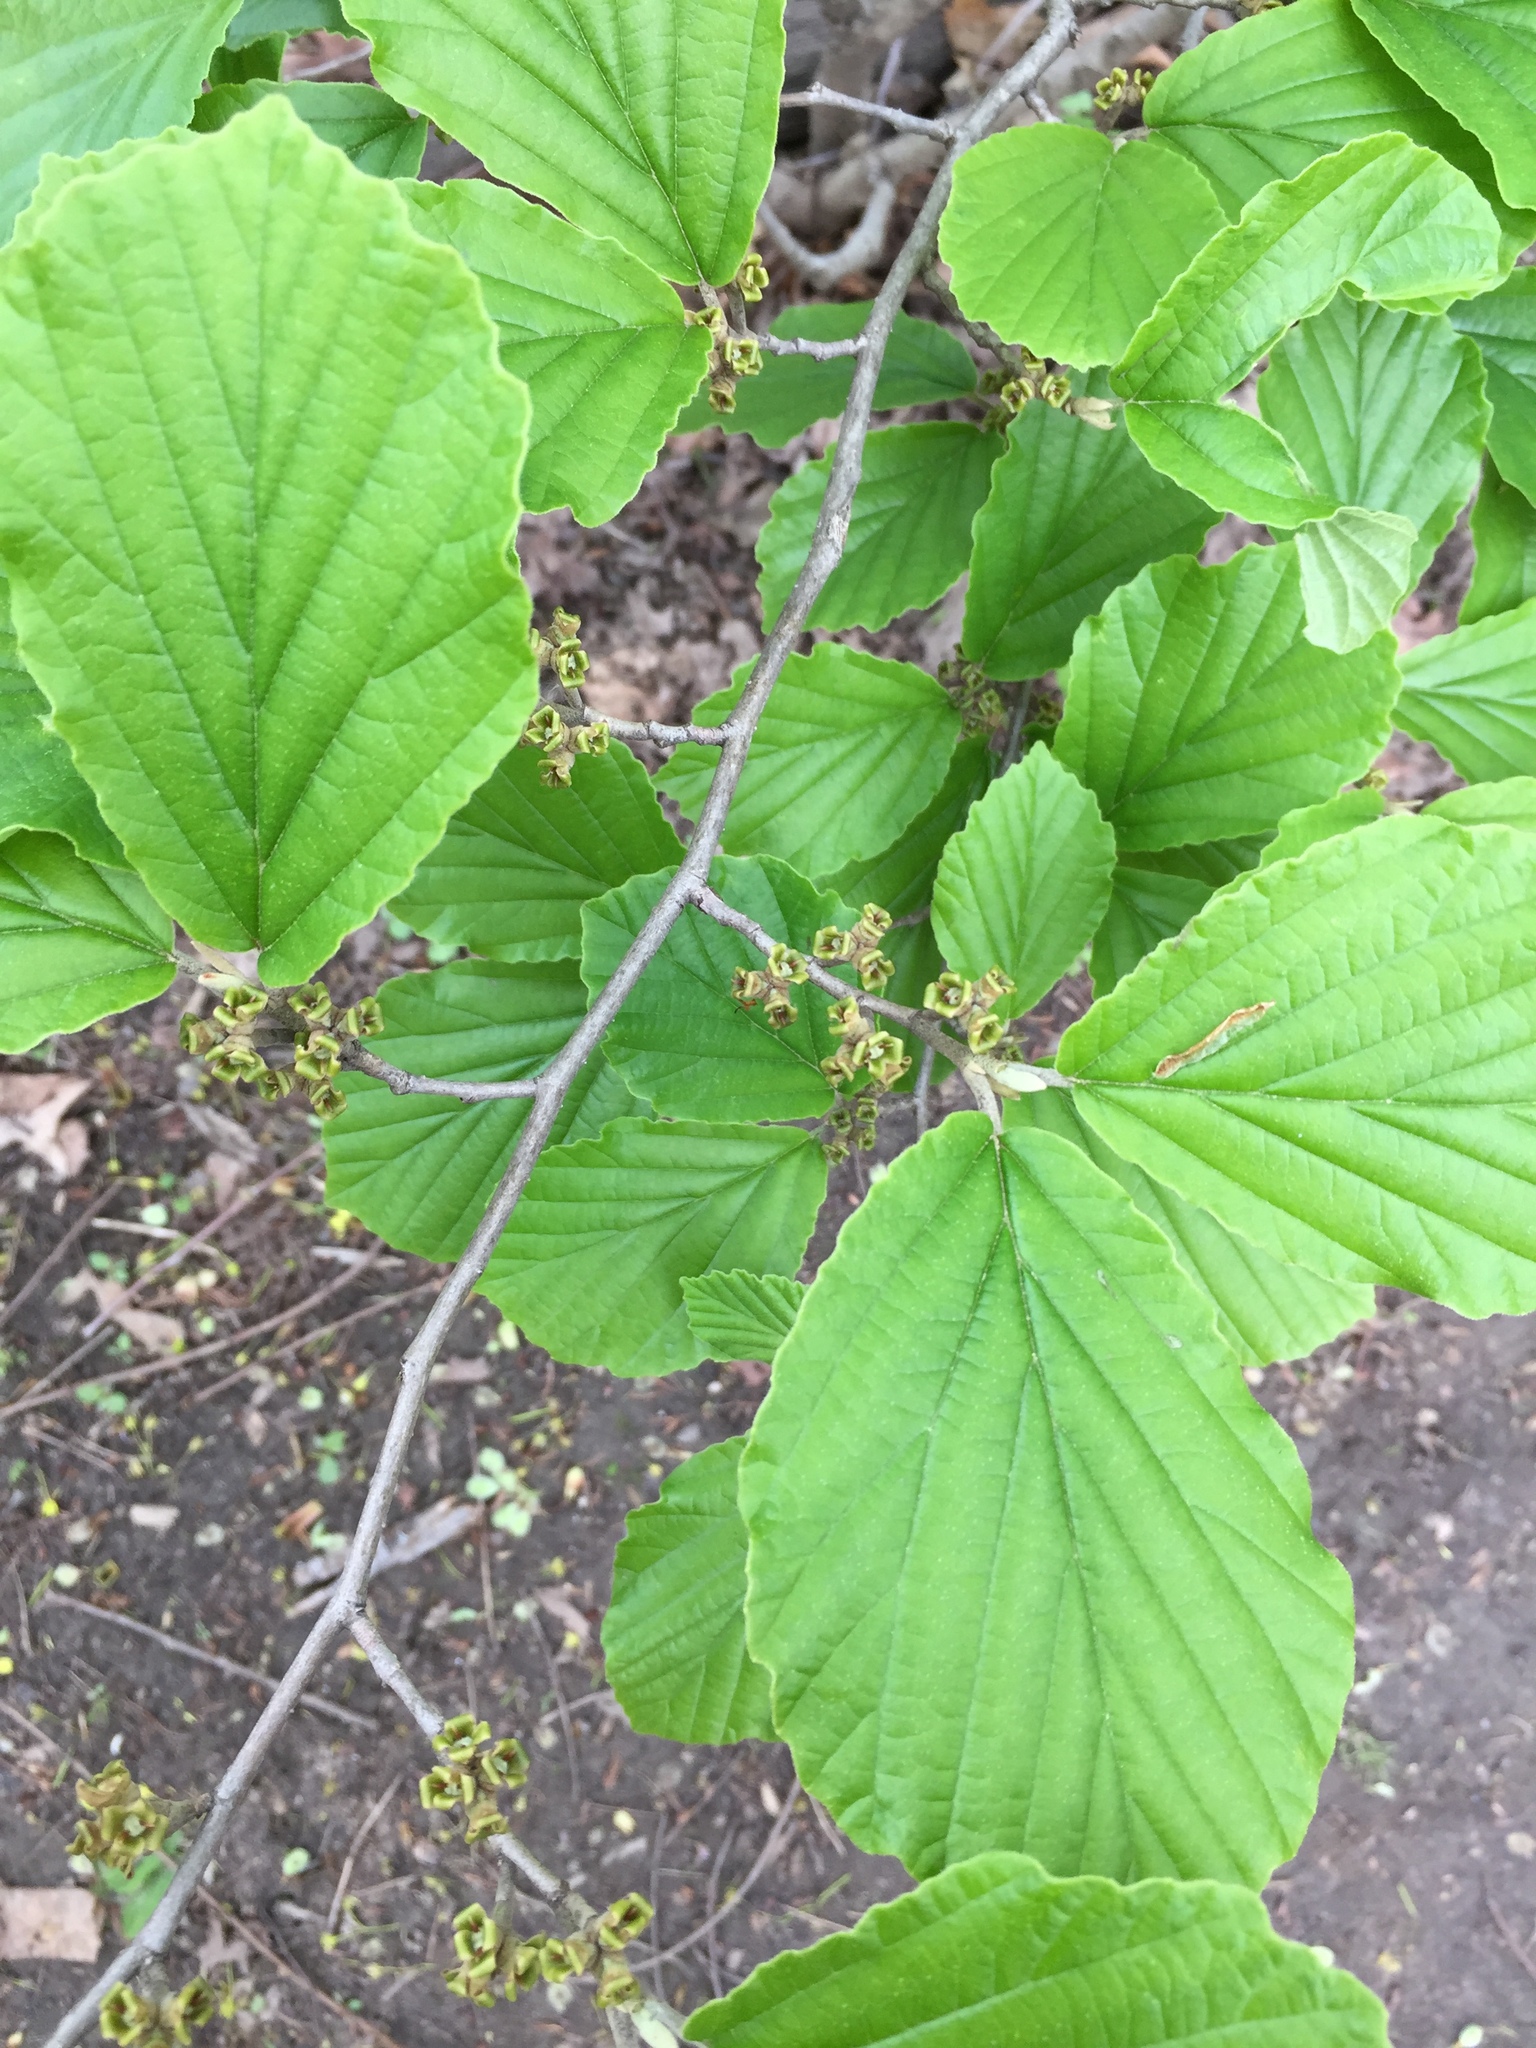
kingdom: Plantae
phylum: Tracheophyta
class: Magnoliopsida
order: Saxifragales
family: Hamamelidaceae
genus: Hamamelis
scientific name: Hamamelis virginiana
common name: Witch-hazel
